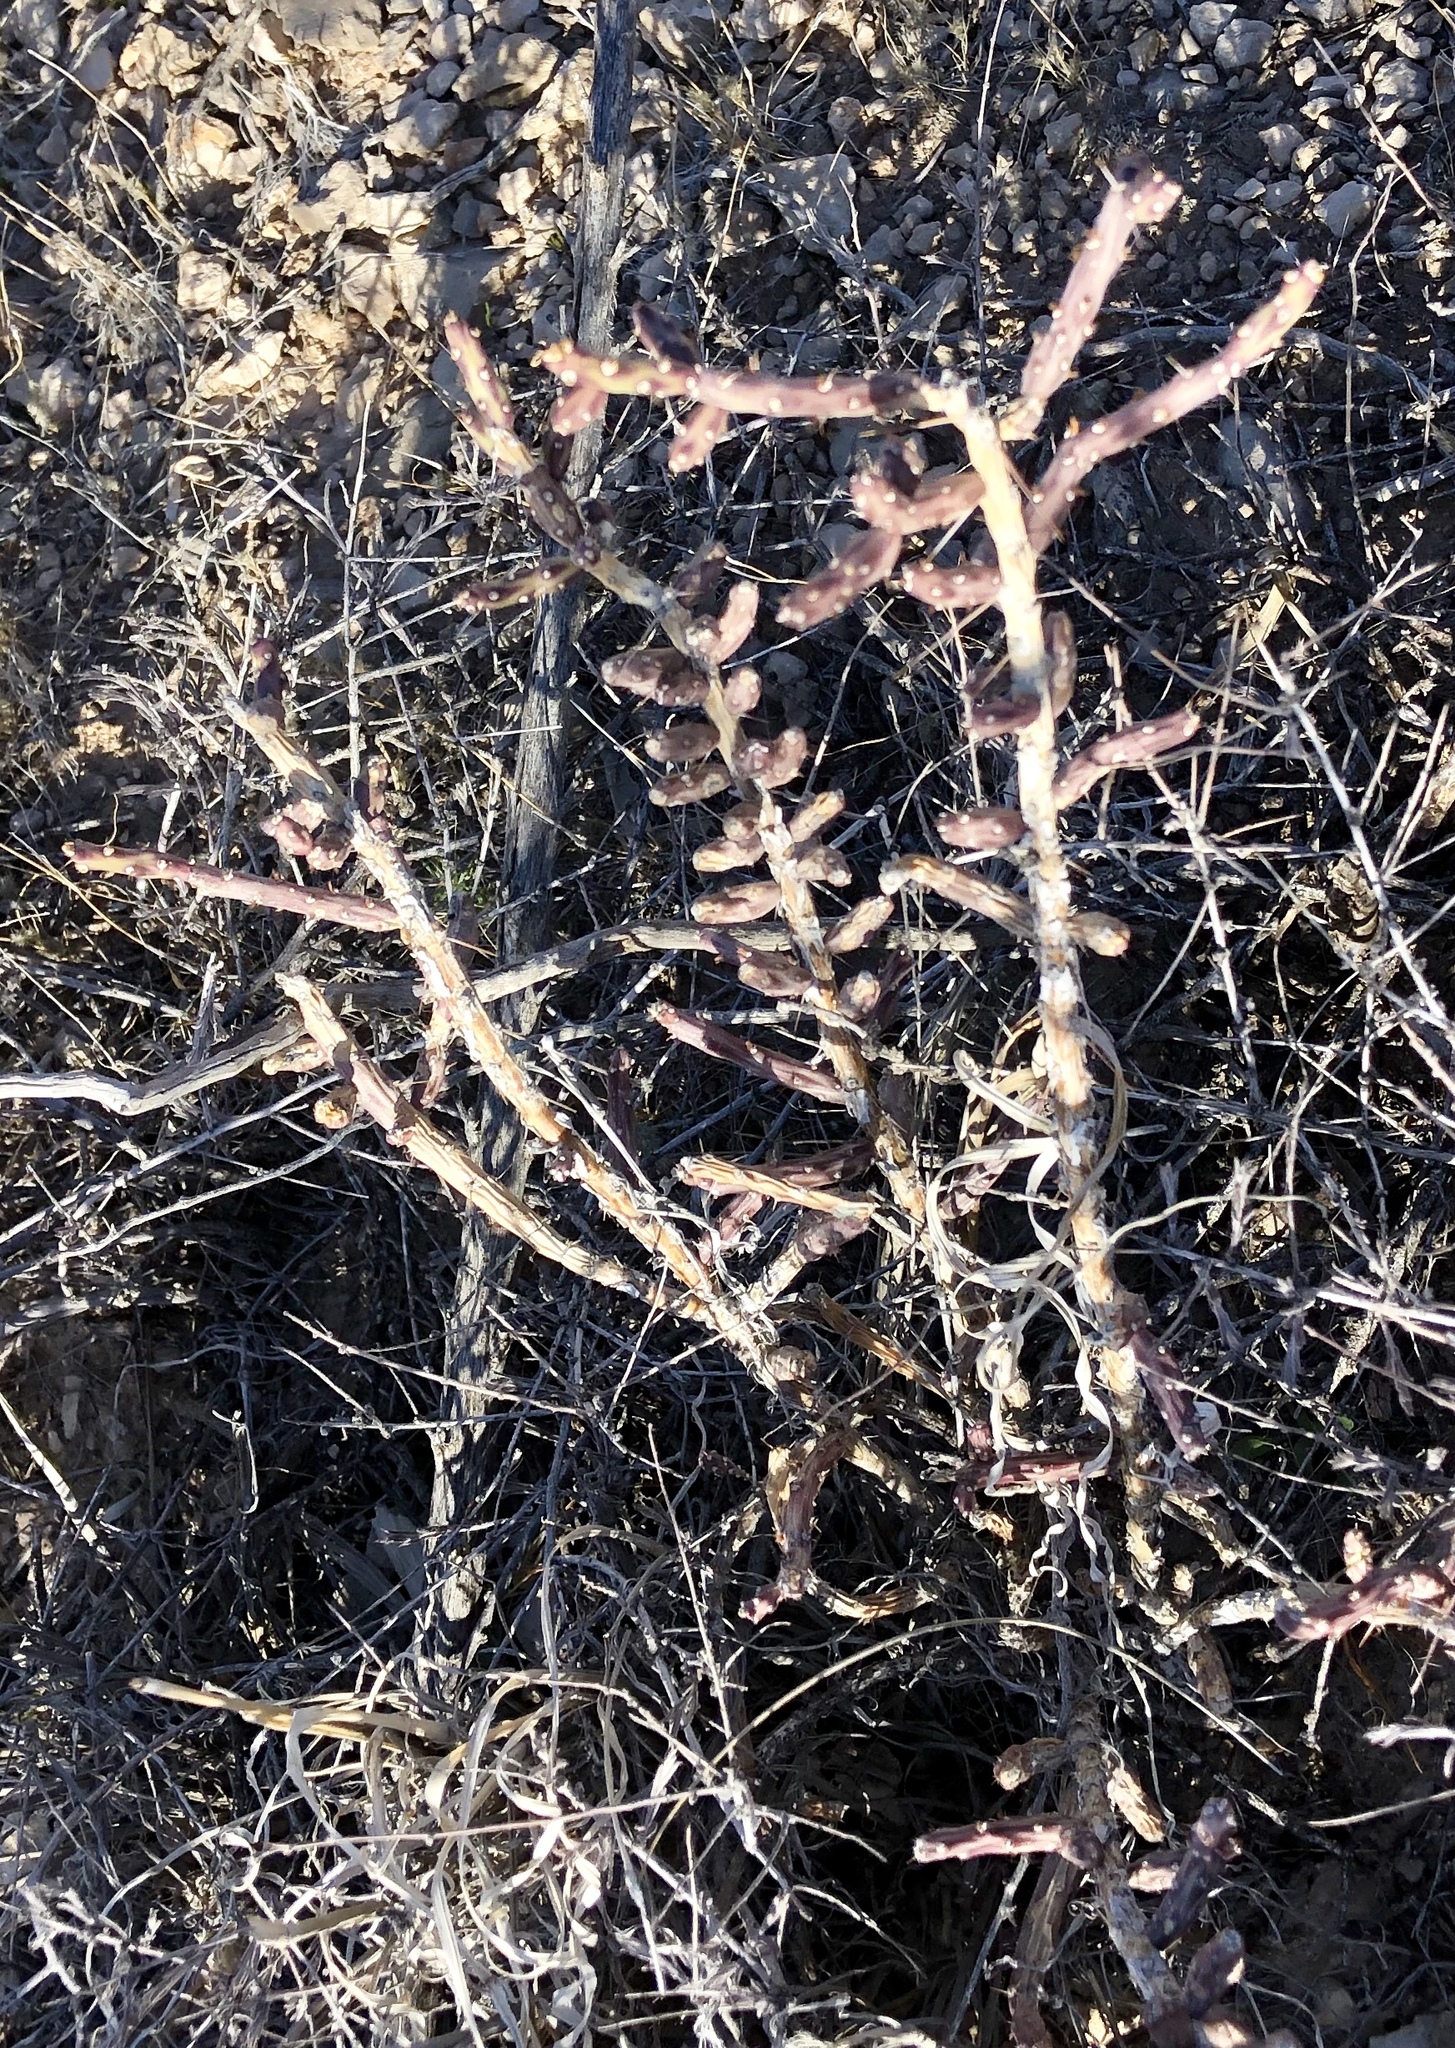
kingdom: Plantae
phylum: Tracheophyta
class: Magnoliopsida
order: Caryophyllales
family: Cactaceae
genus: Cylindropuntia
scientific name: Cylindropuntia leptocaulis
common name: Christmas cactus
